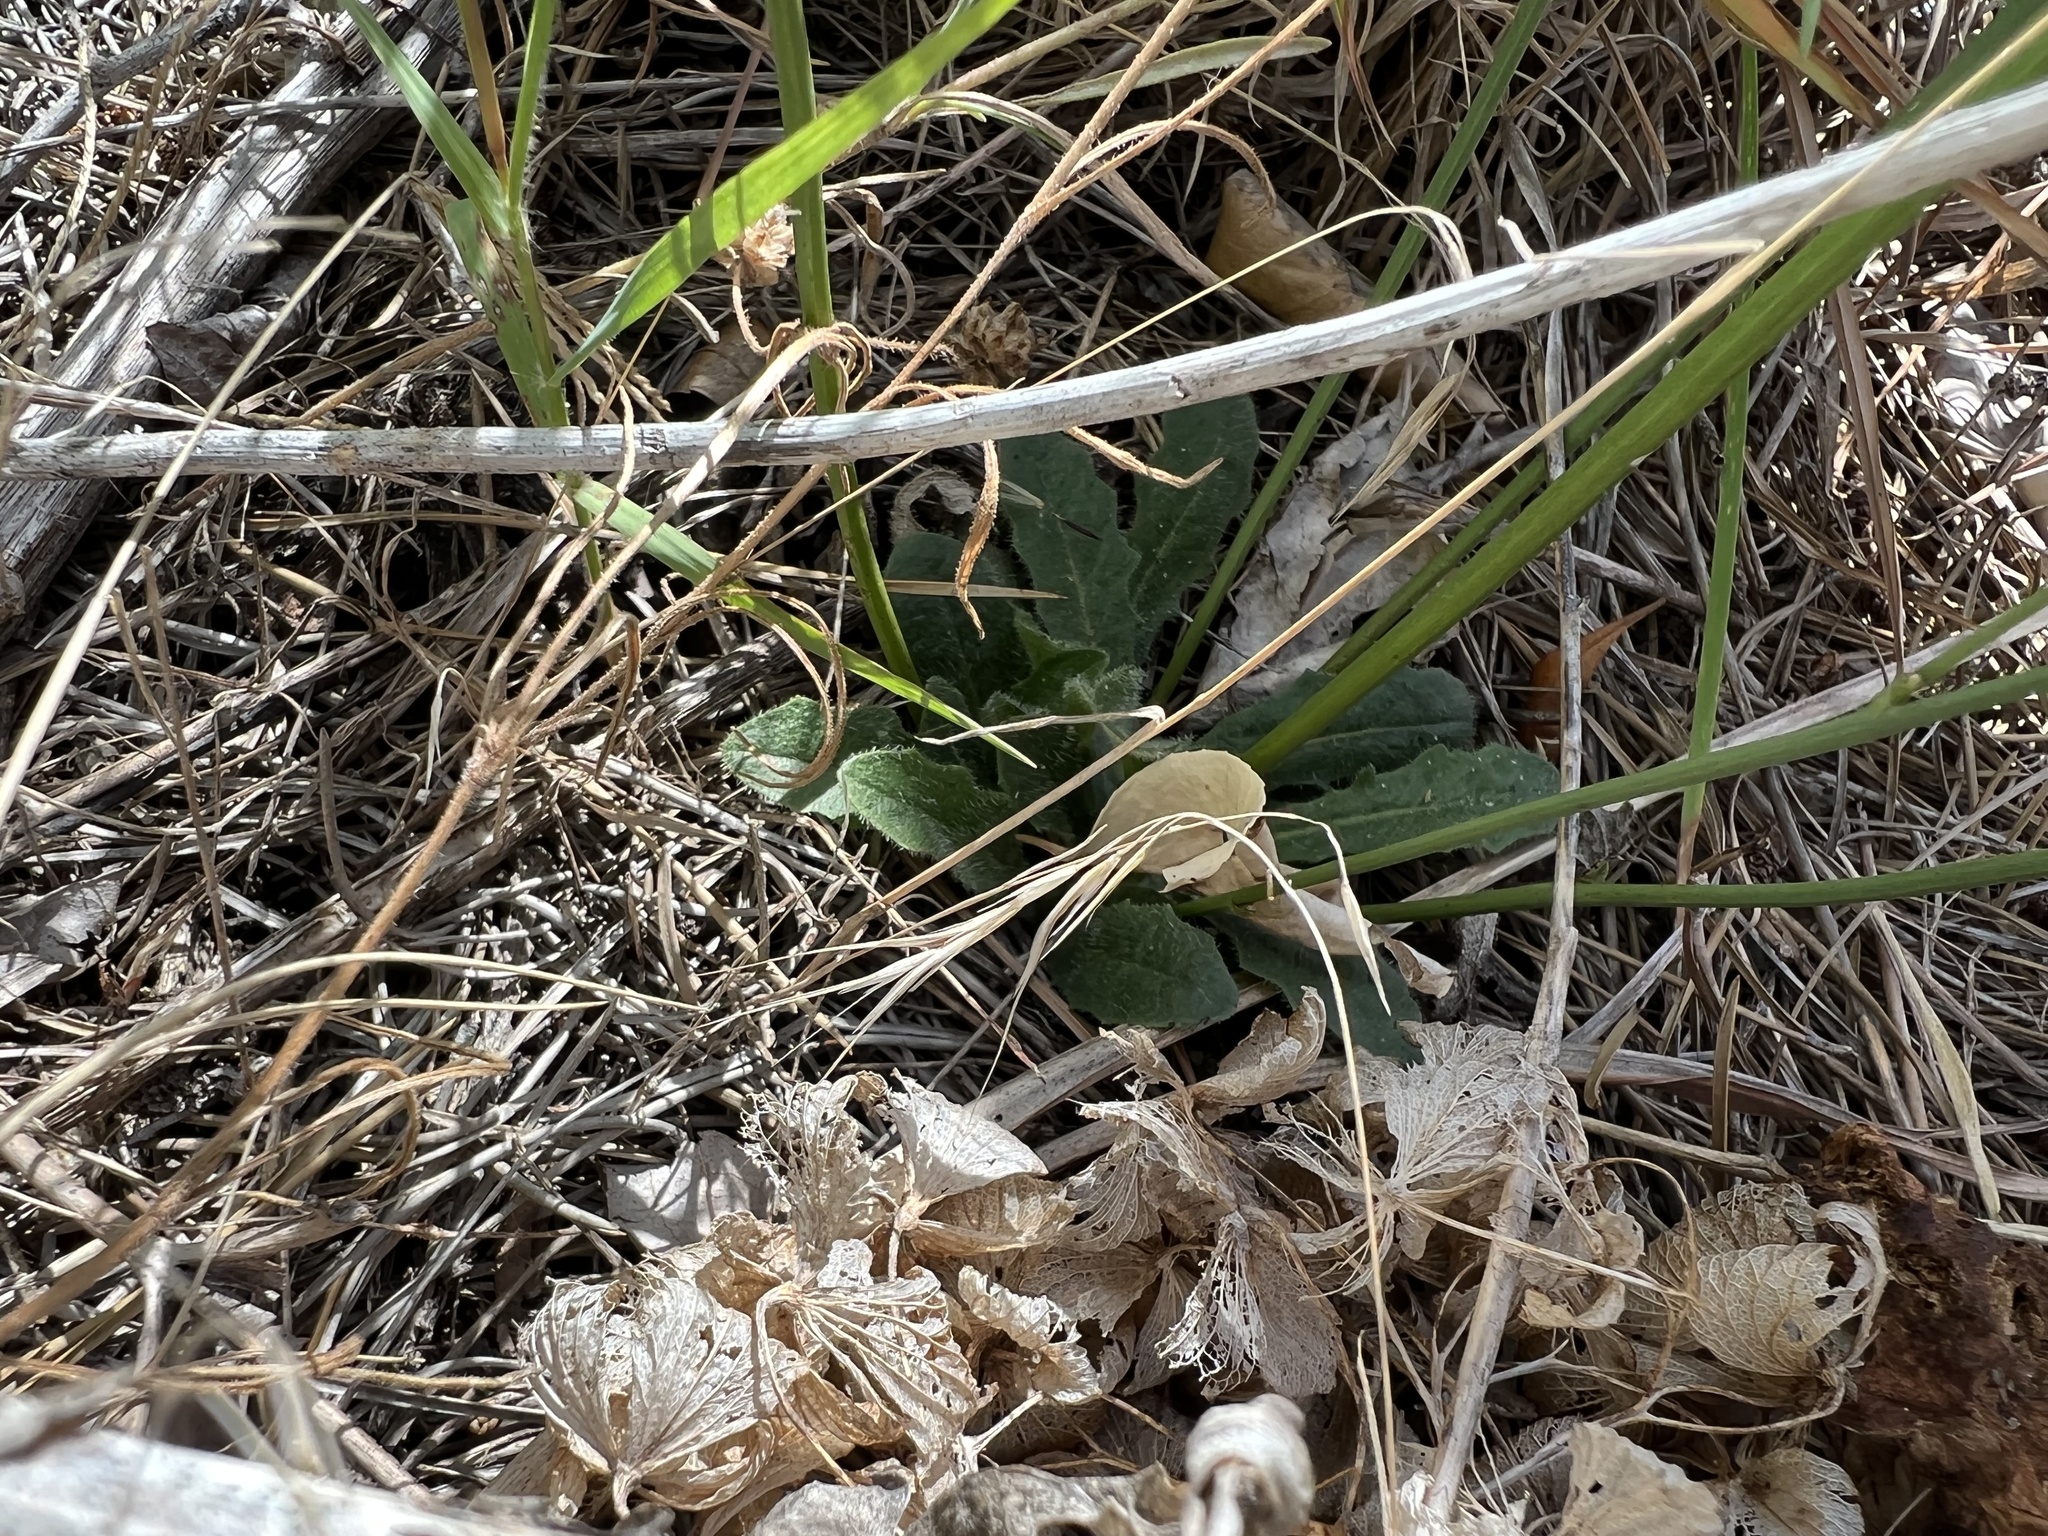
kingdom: Plantae
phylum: Tracheophyta
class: Magnoliopsida
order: Asterales
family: Asteraceae
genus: Hypochaeris
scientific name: Hypochaeris radicata
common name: Flatweed
